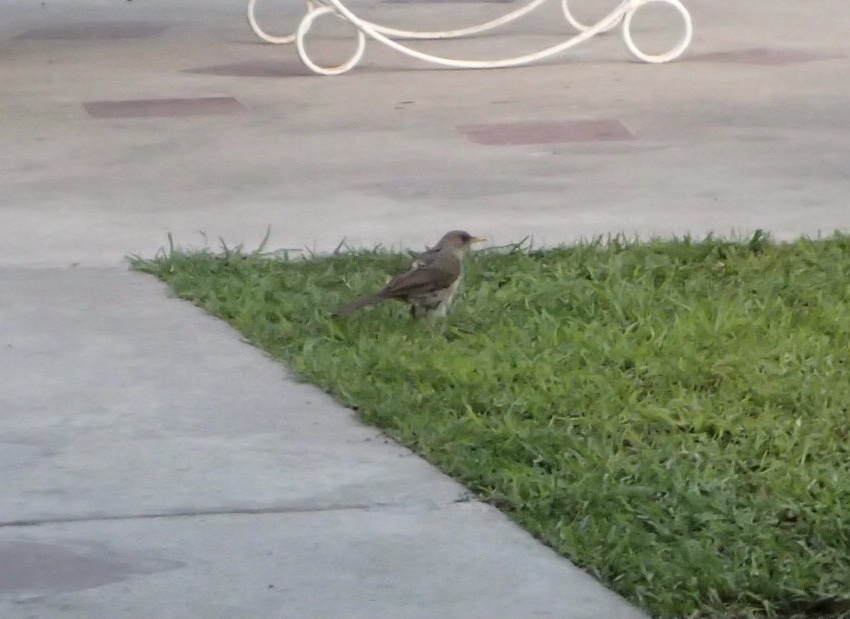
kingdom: Animalia
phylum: Chordata
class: Aves
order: Passeriformes
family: Turdidae
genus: Turdus
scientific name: Turdus amaurochalinus
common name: Creamy-bellied thrush
